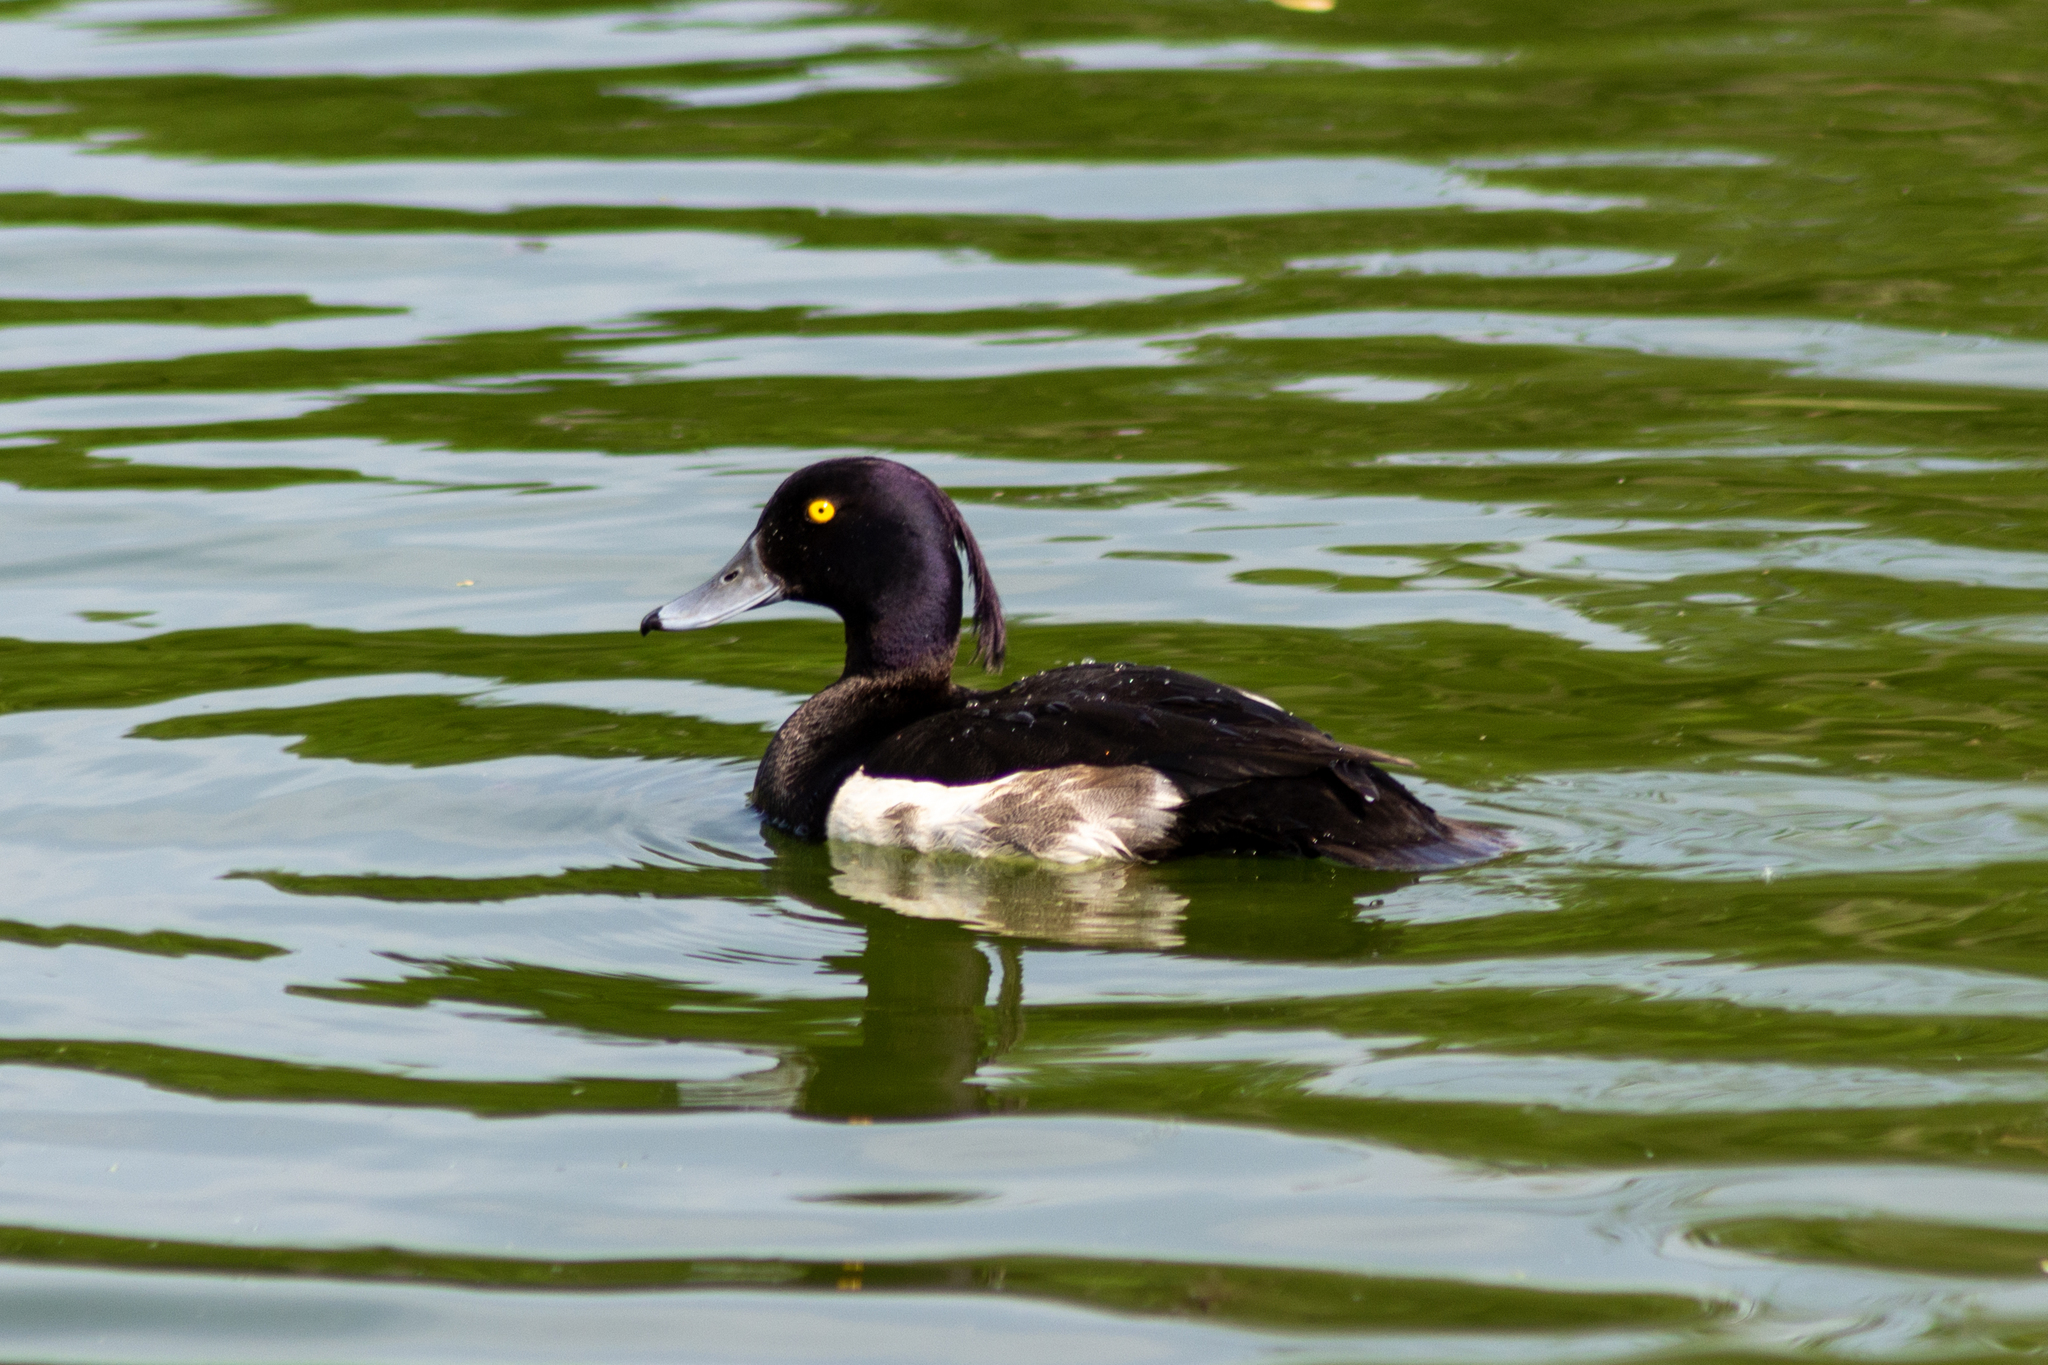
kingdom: Animalia
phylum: Chordata
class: Aves
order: Anseriformes
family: Anatidae
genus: Aythya
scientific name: Aythya fuligula
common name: Tufted duck
